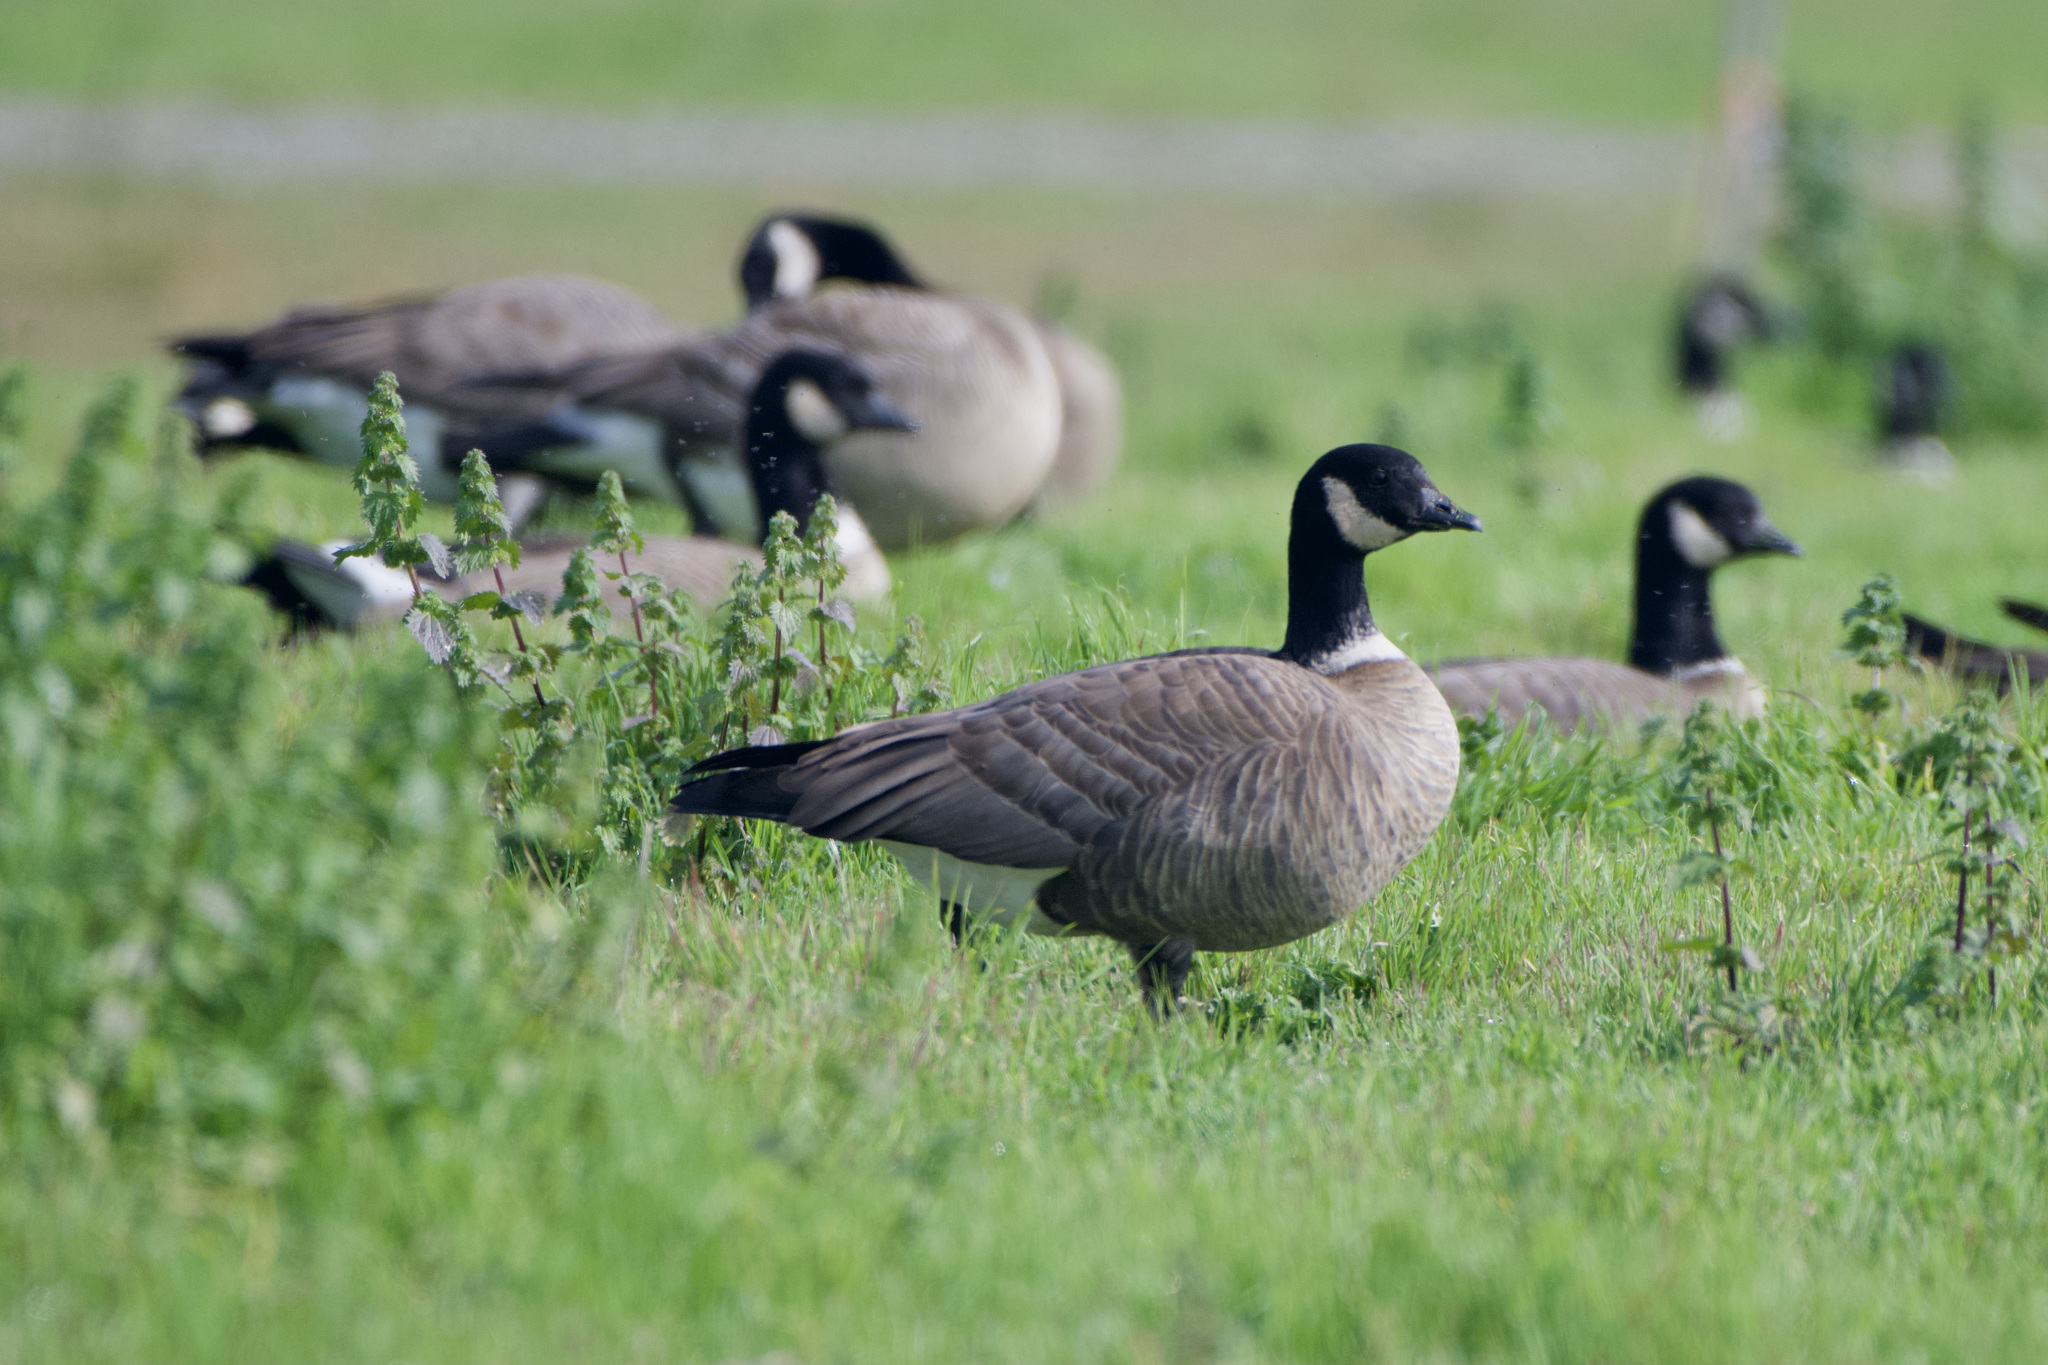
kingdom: Animalia
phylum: Chordata
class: Aves
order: Anseriformes
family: Anatidae
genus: Branta
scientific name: Branta hutchinsii
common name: Cackling goose
